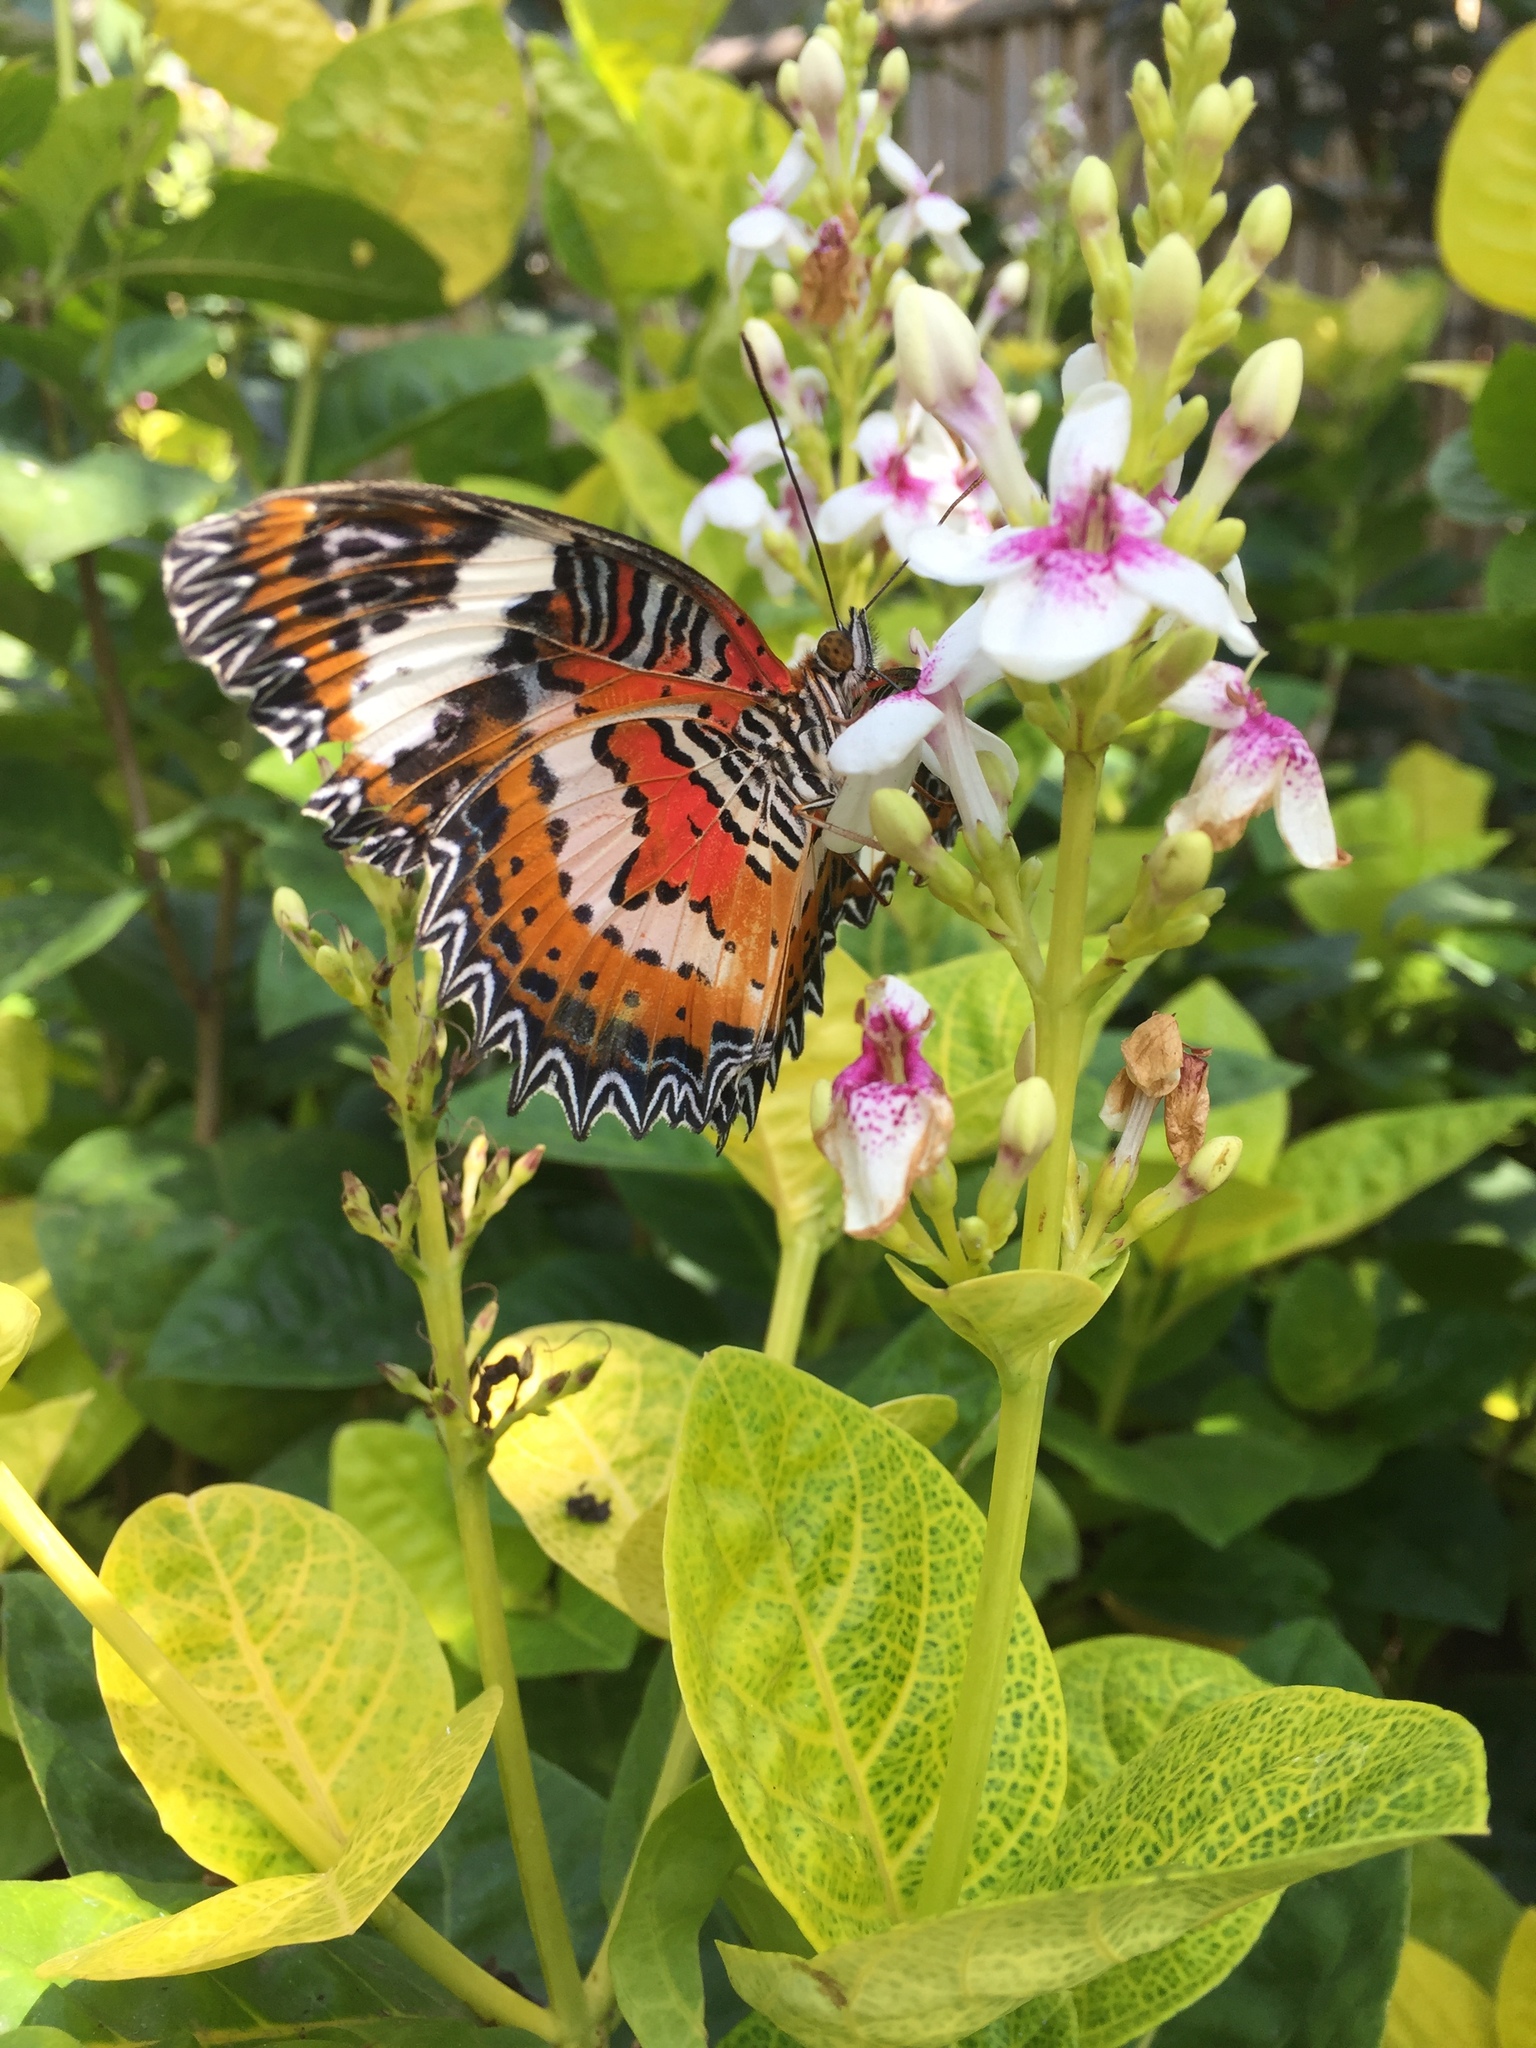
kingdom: Animalia
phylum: Arthropoda
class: Insecta
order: Lepidoptera
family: Nymphalidae
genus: Cethosia
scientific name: Cethosia hypsea
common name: Malayan lacewing butterfly
